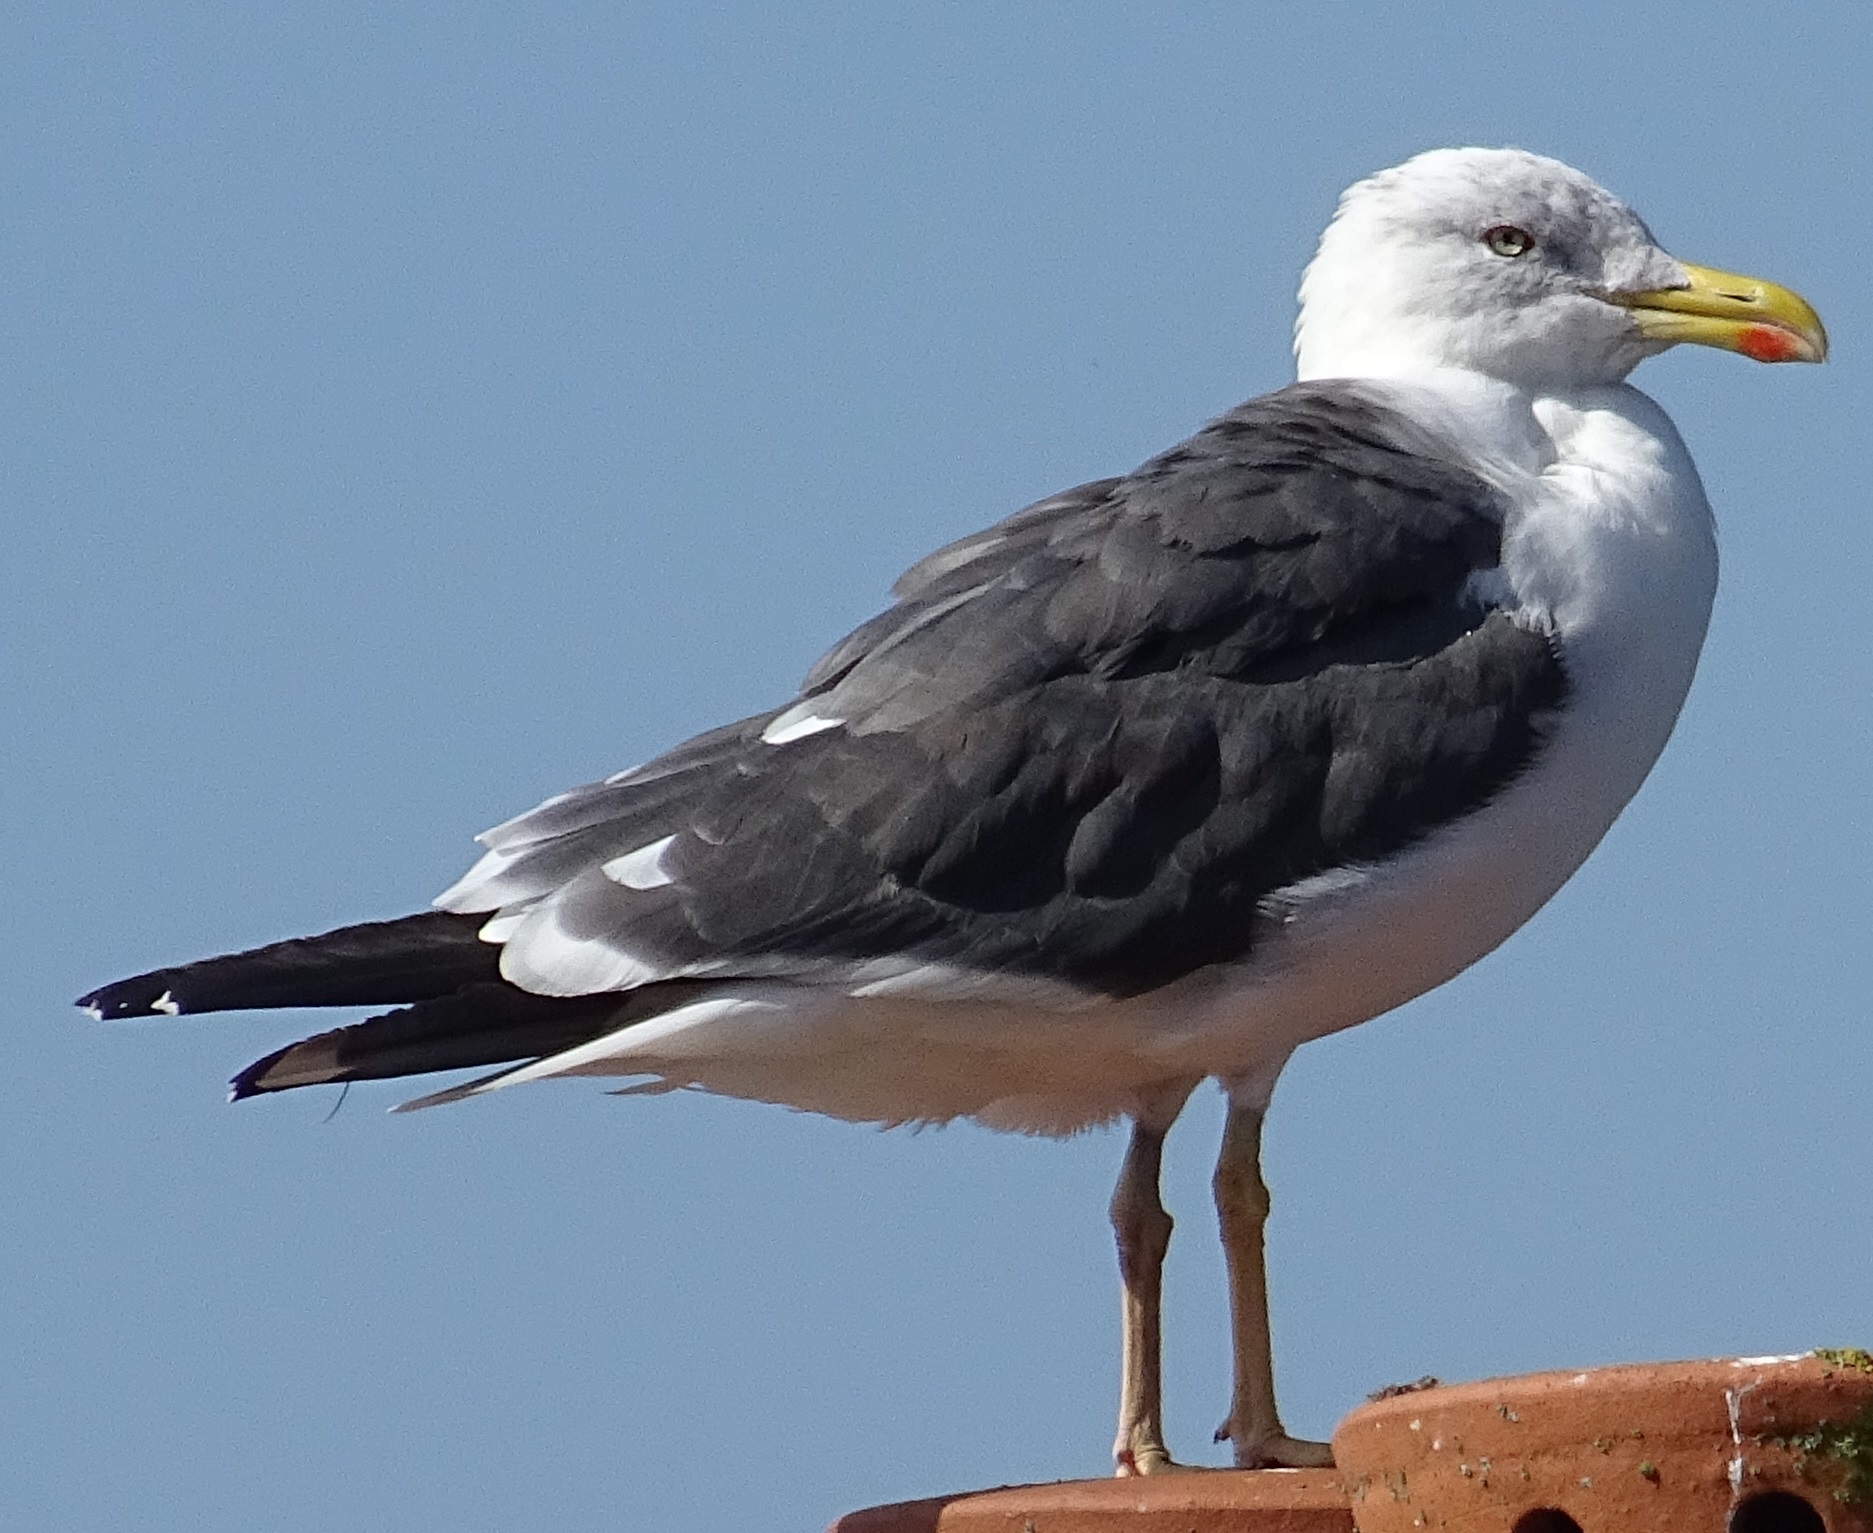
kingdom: Animalia
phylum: Chordata
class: Aves
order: Charadriiformes
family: Laridae
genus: Larus
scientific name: Larus marinus
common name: Great black-backed gull
